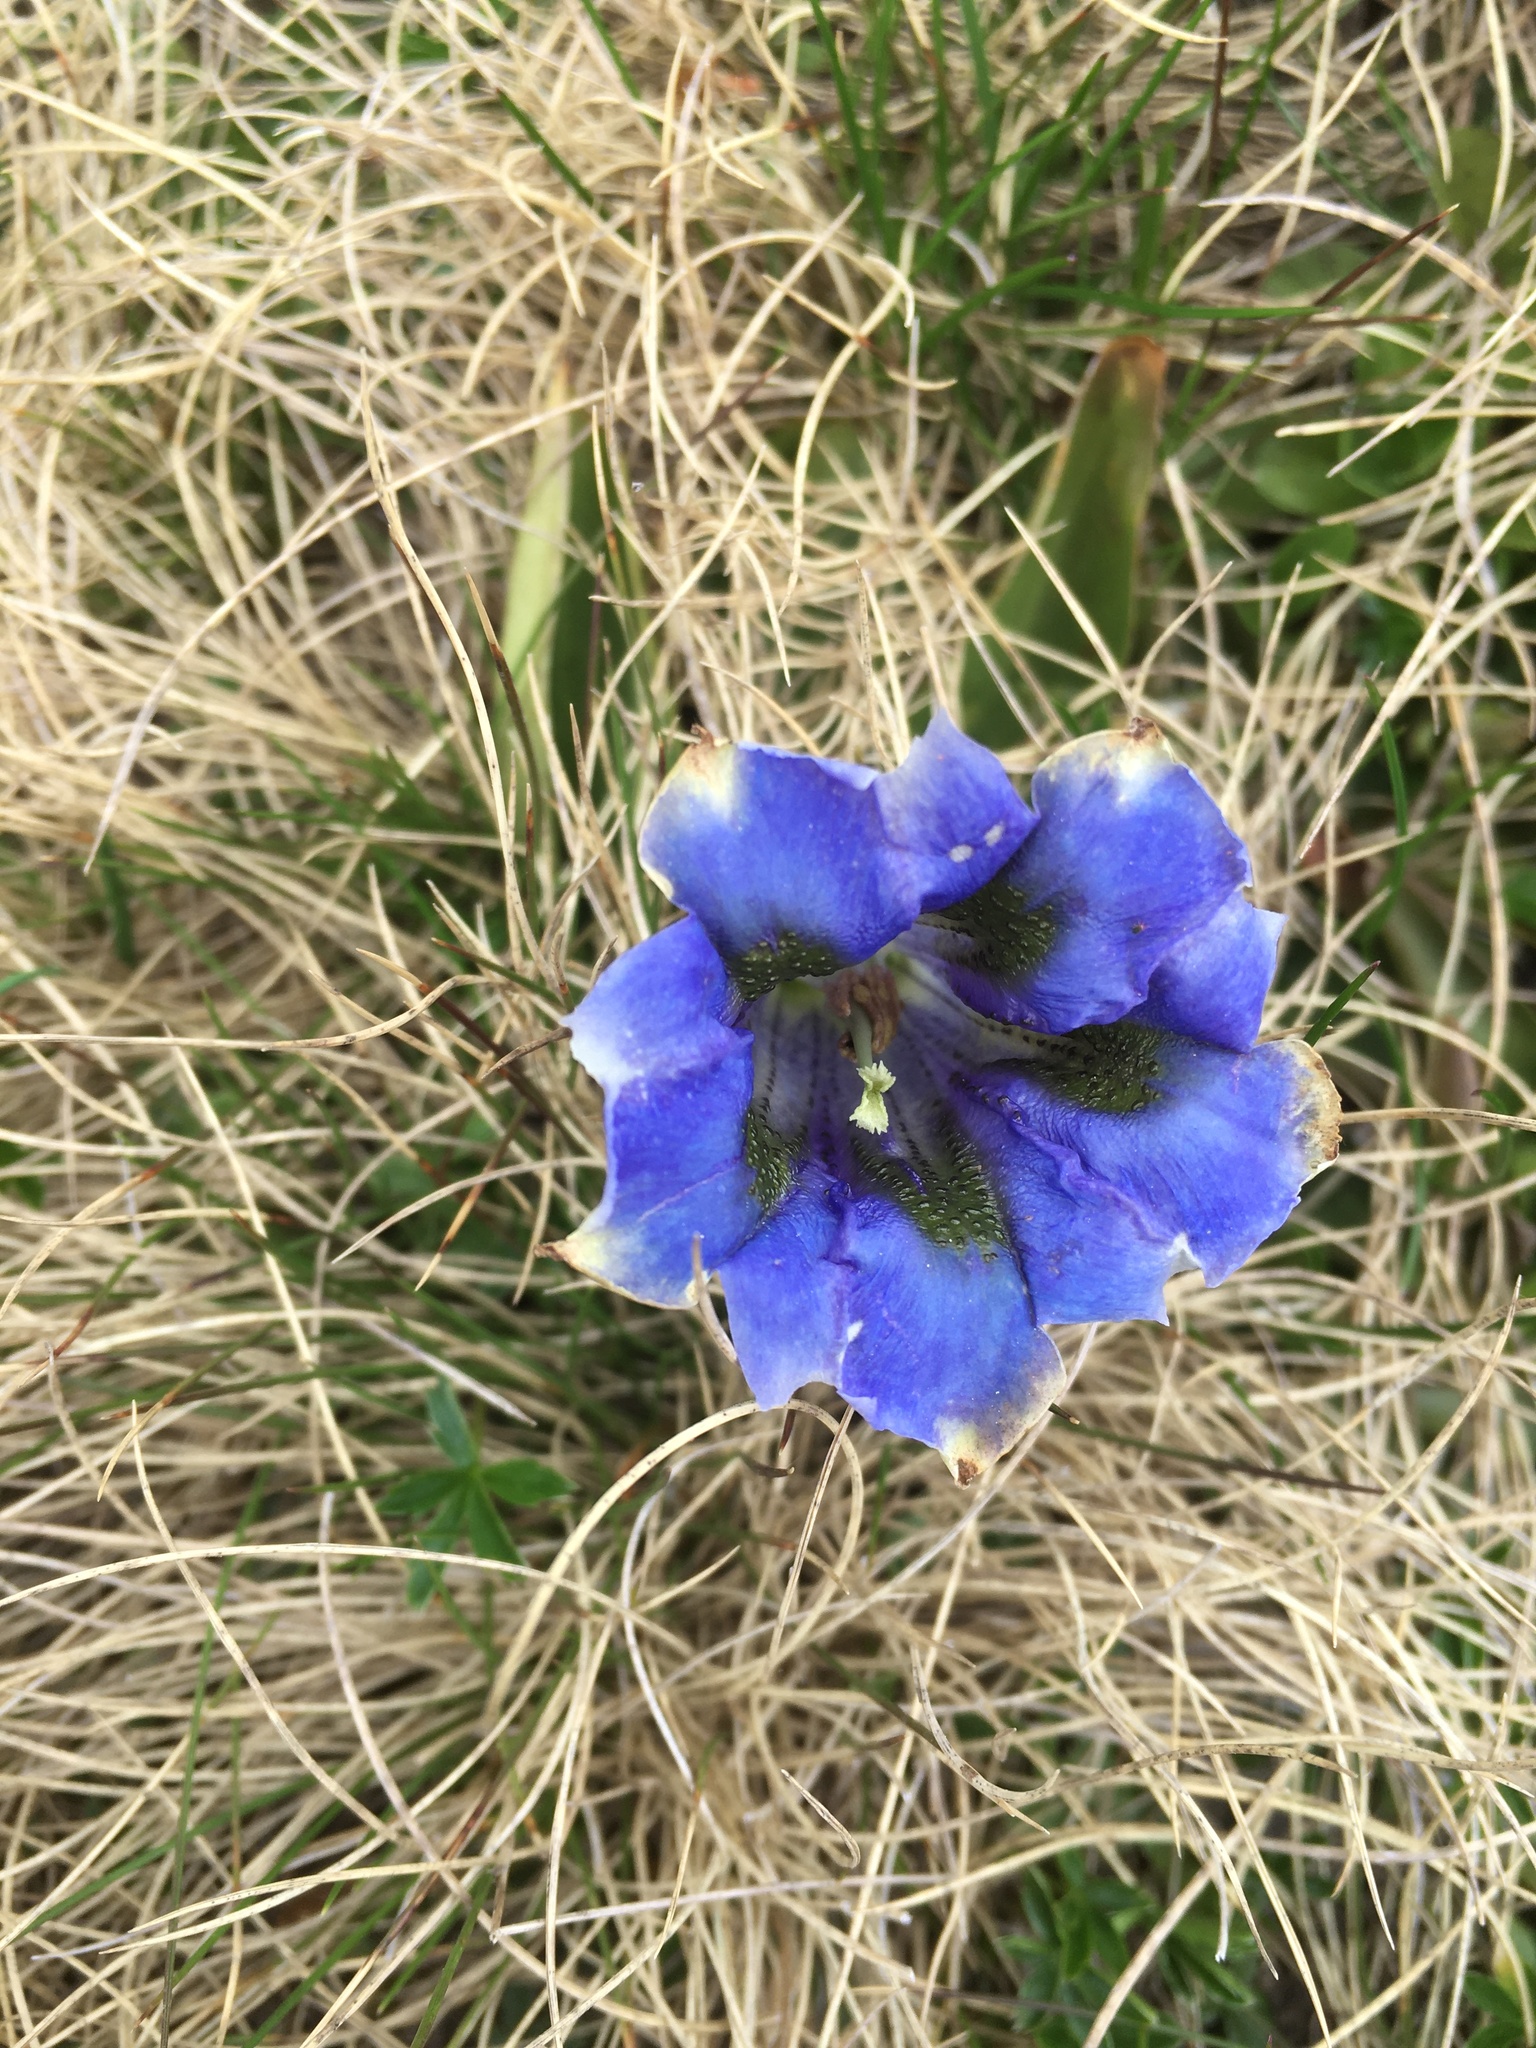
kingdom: Plantae
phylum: Tracheophyta
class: Magnoliopsida
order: Gentianales
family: Gentianaceae
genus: Gentiana
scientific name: Gentiana acaulis
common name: Trumpet gentian
